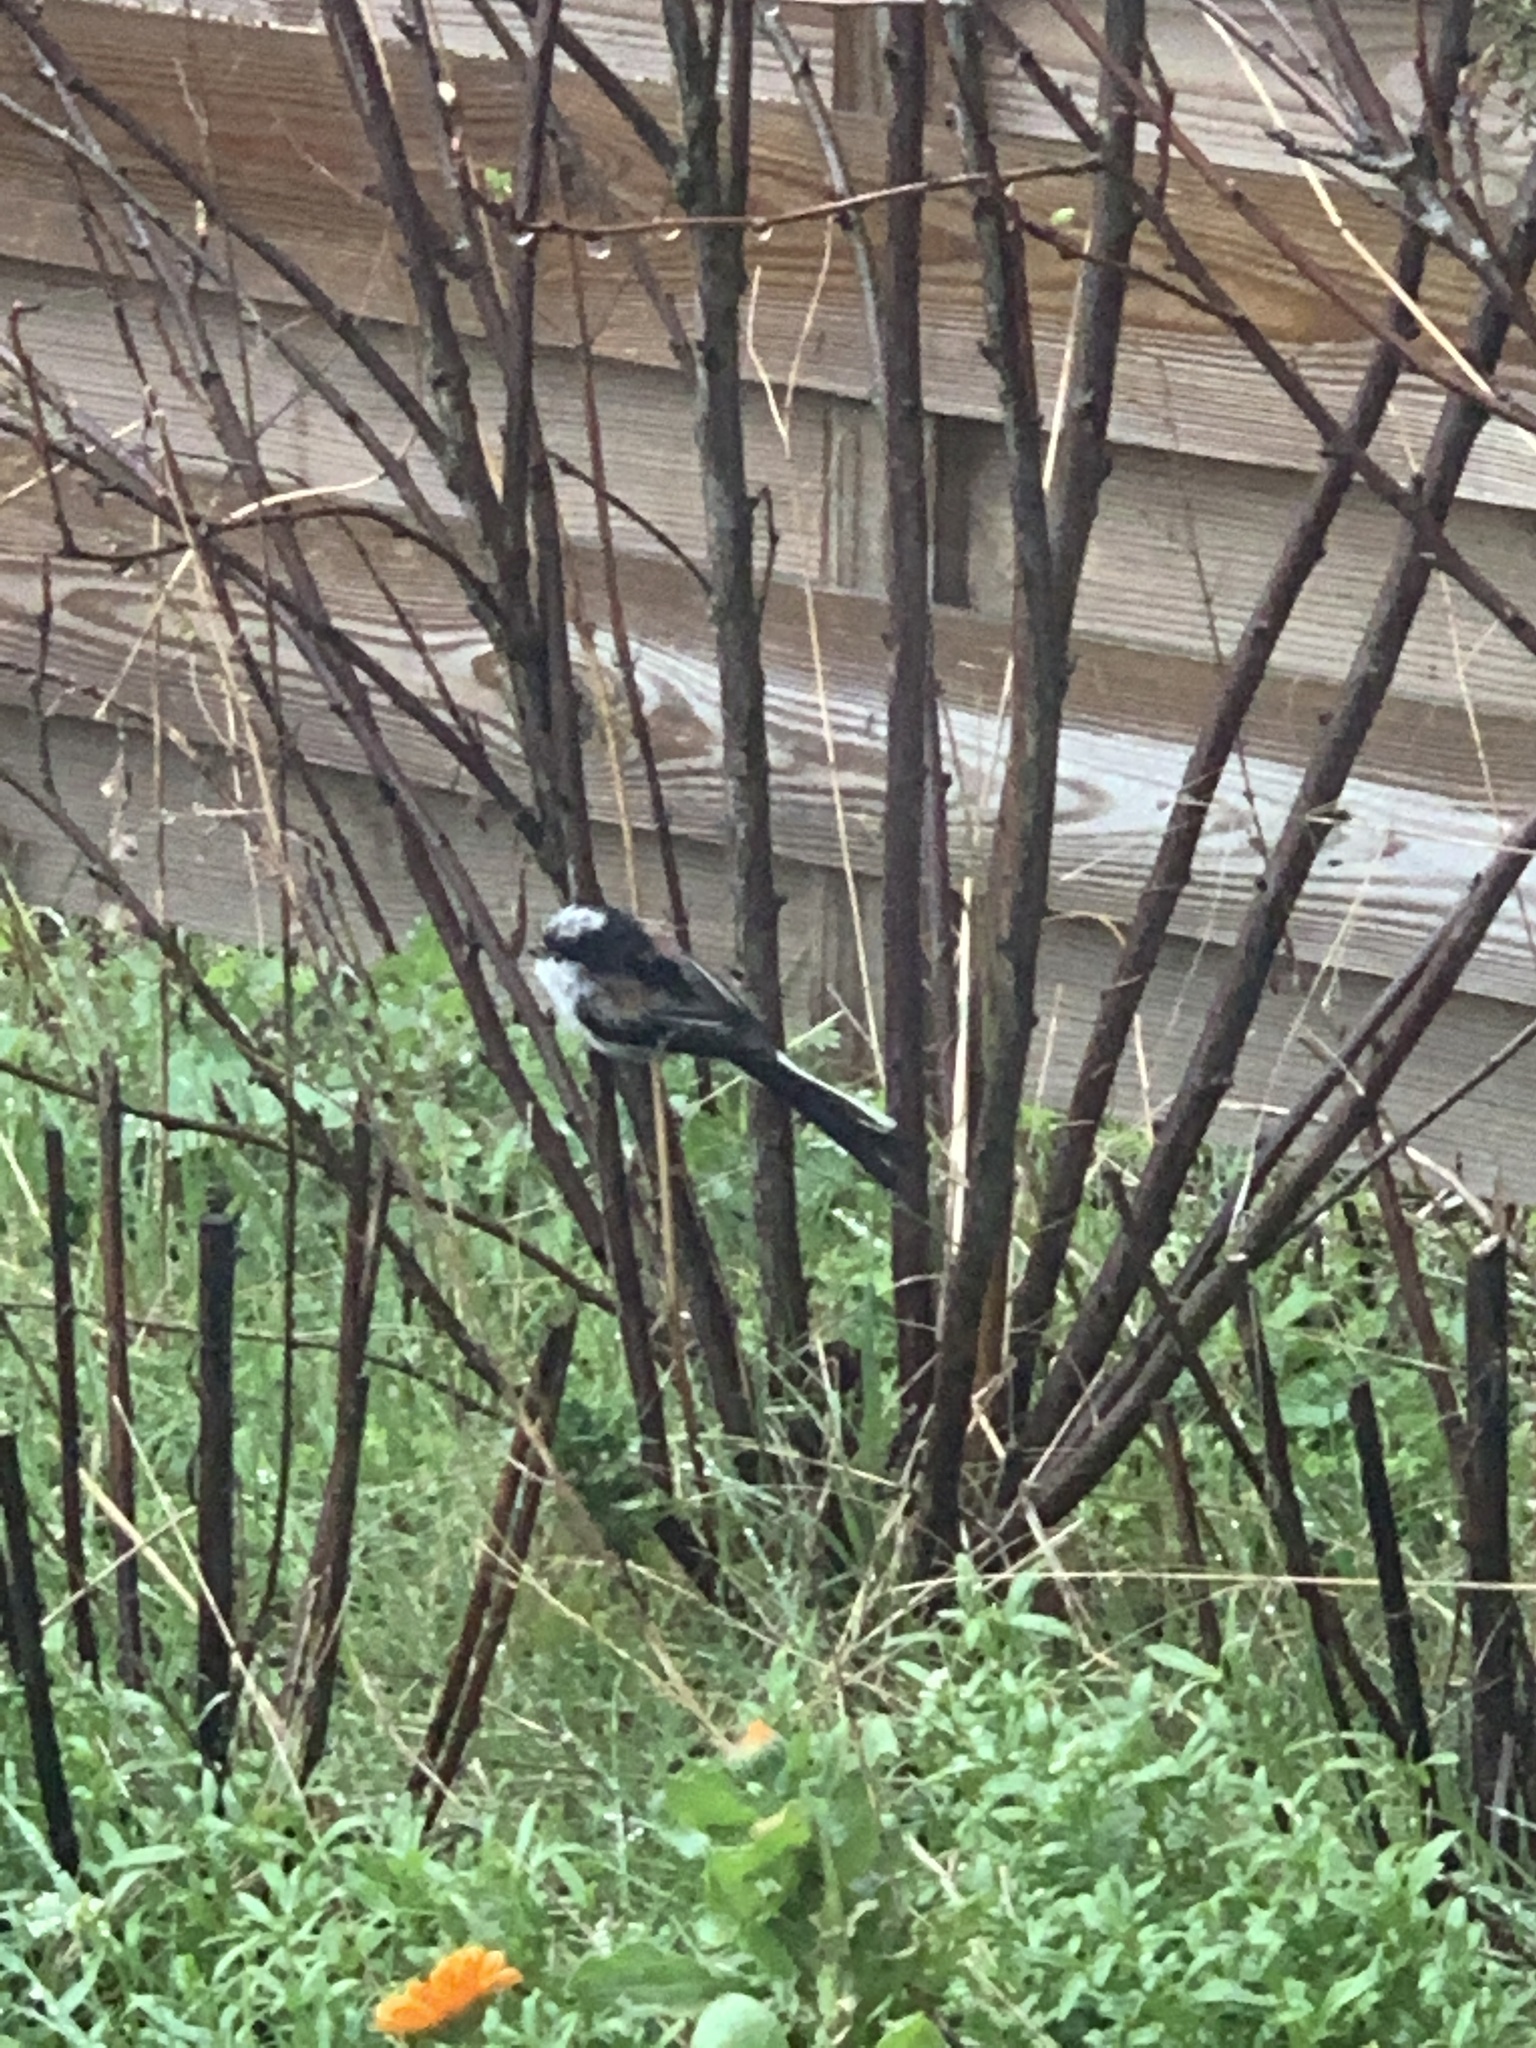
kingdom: Animalia
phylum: Chordata
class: Aves
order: Passeriformes
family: Aegithalidae
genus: Aegithalos
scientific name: Aegithalos caudatus
